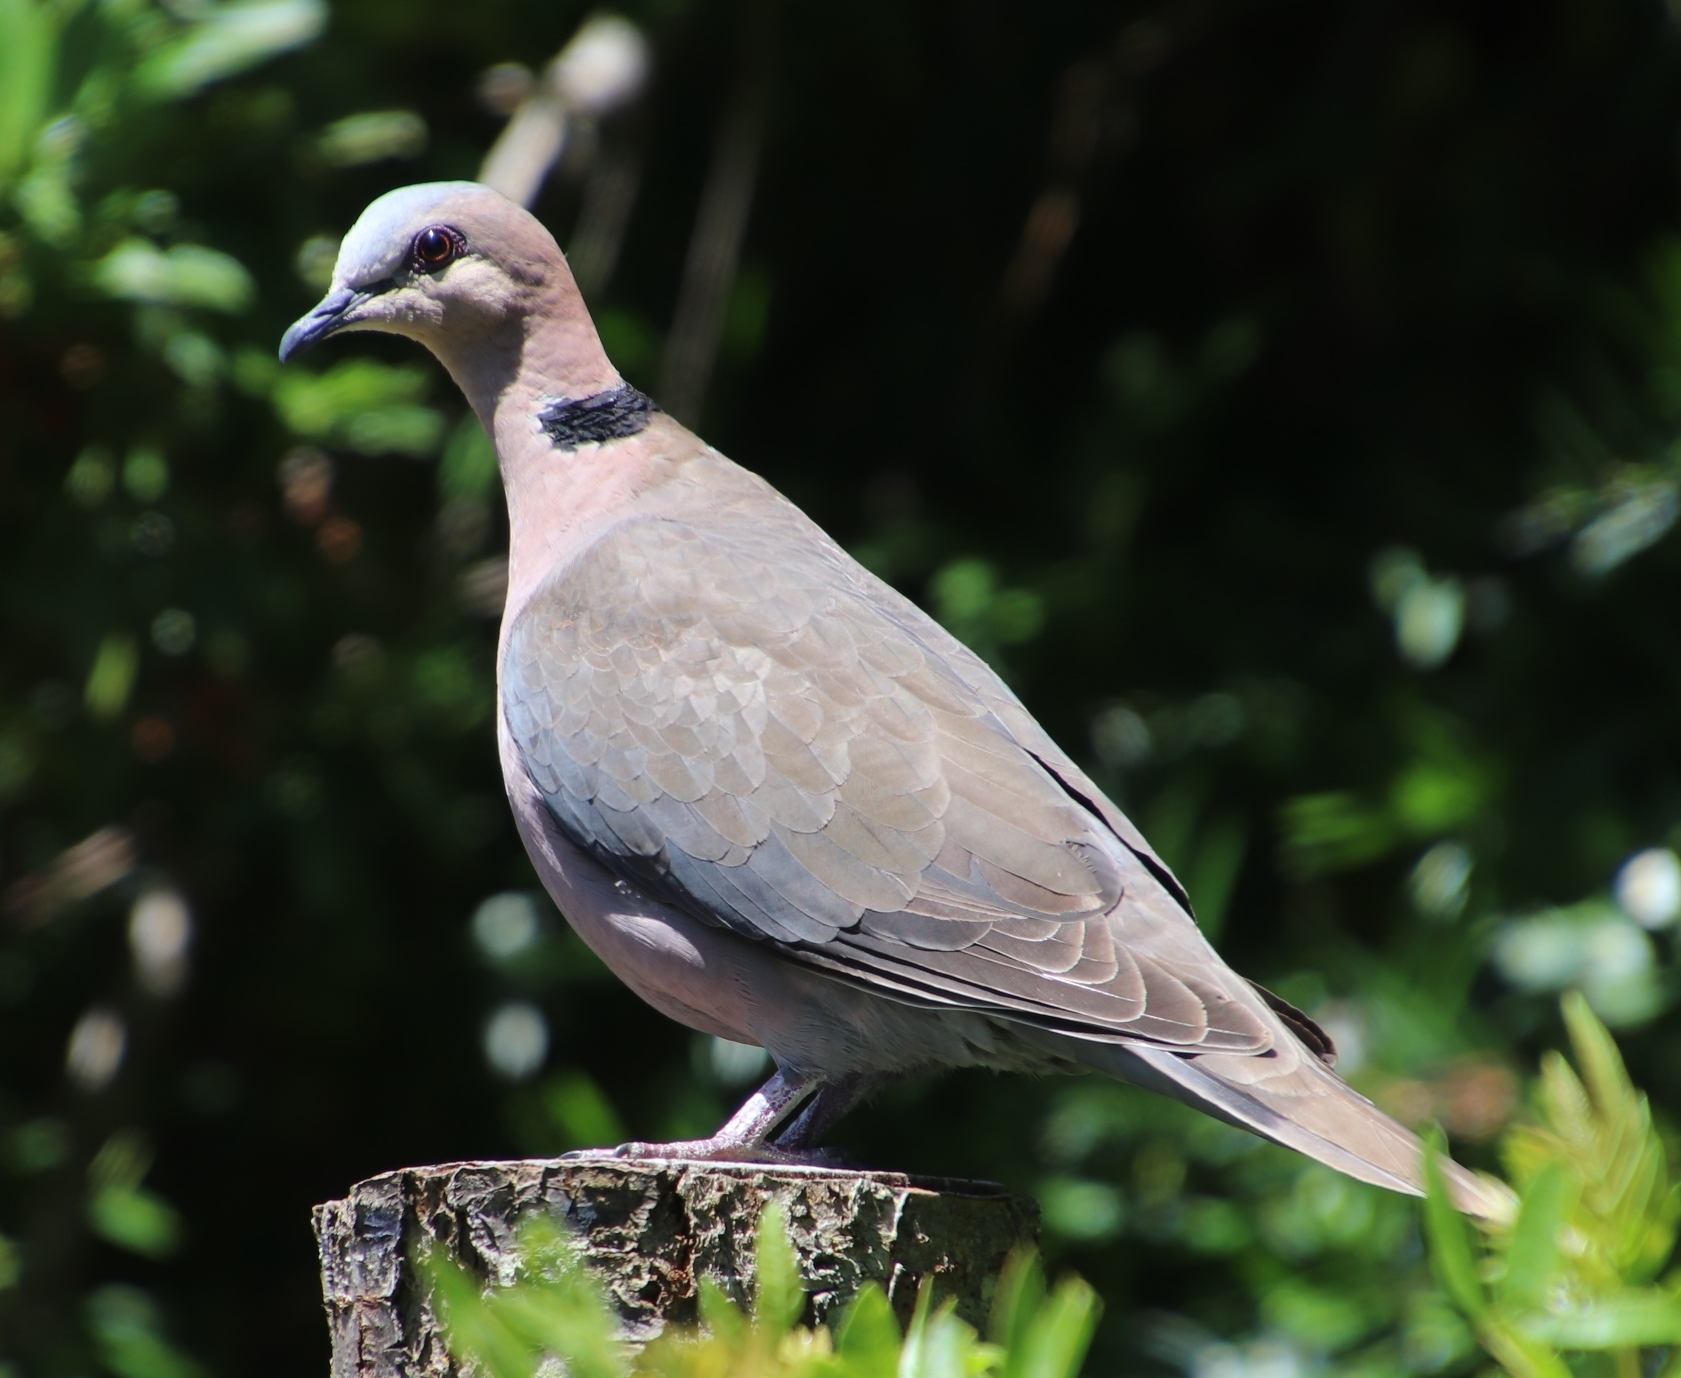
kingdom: Animalia
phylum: Chordata
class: Aves
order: Columbiformes
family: Columbidae
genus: Streptopelia
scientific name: Streptopelia semitorquata
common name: Red-eyed dove
